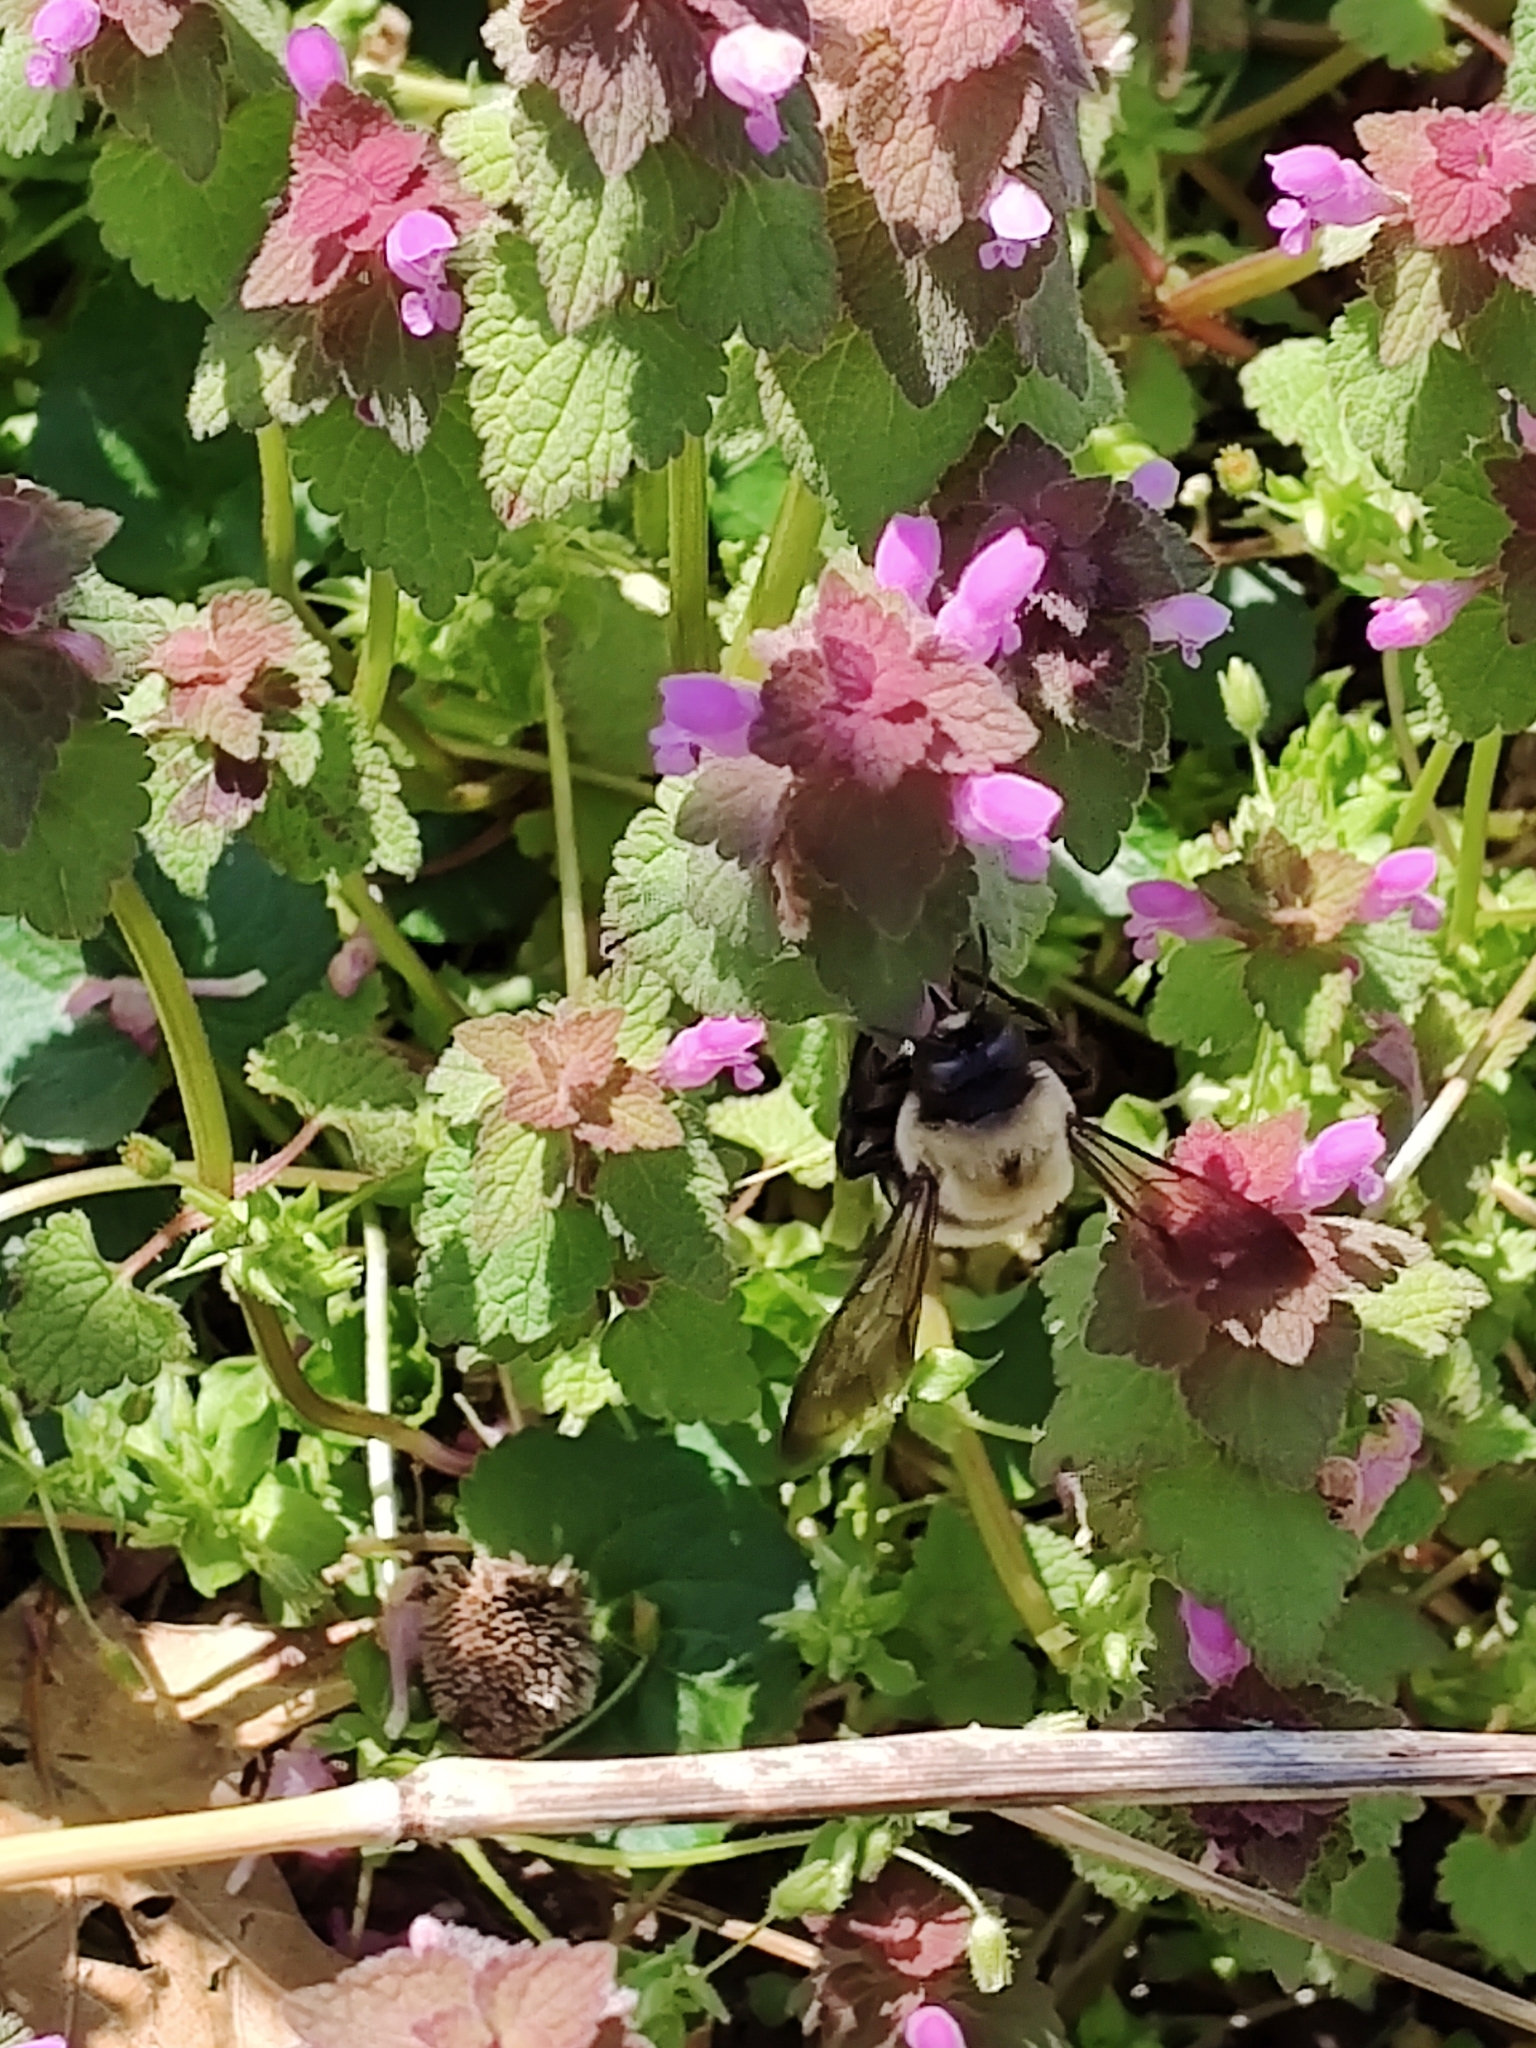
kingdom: Animalia
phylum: Arthropoda
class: Insecta
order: Hymenoptera
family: Apidae
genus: Xylocopa
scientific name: Xylocopa virginica
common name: Carpenter bee
